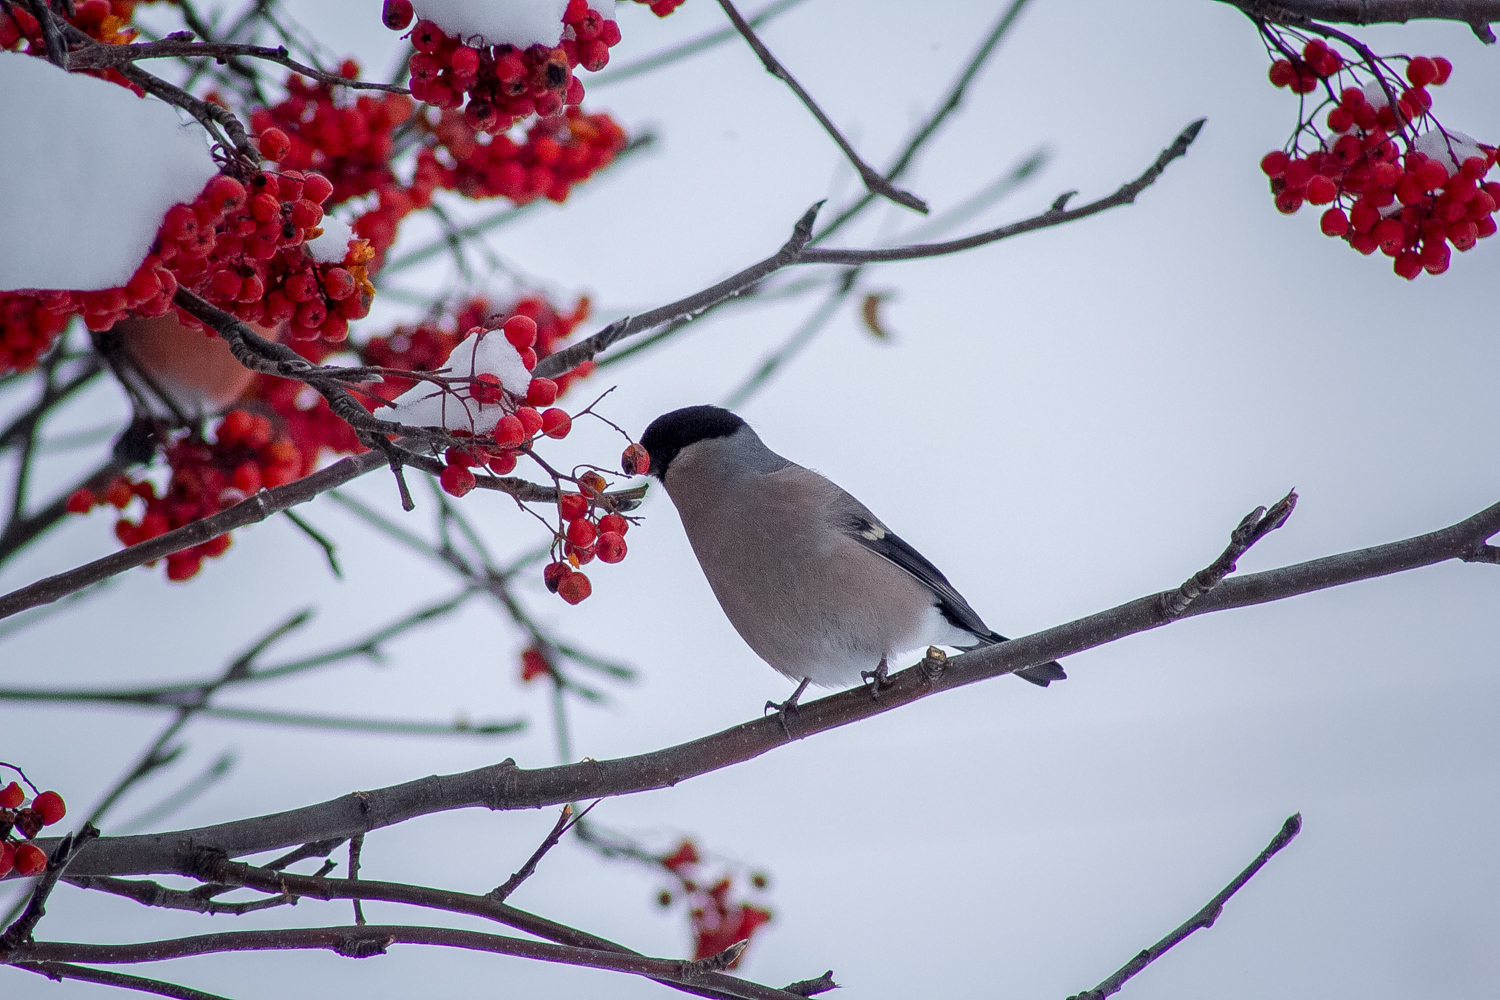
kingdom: Animalia
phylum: Chordata
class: Aves
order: Passeriformes
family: Fringillidae
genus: Pyrrhula
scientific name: Pyrrhula pyrrhula
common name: Eurasian bullfinch
